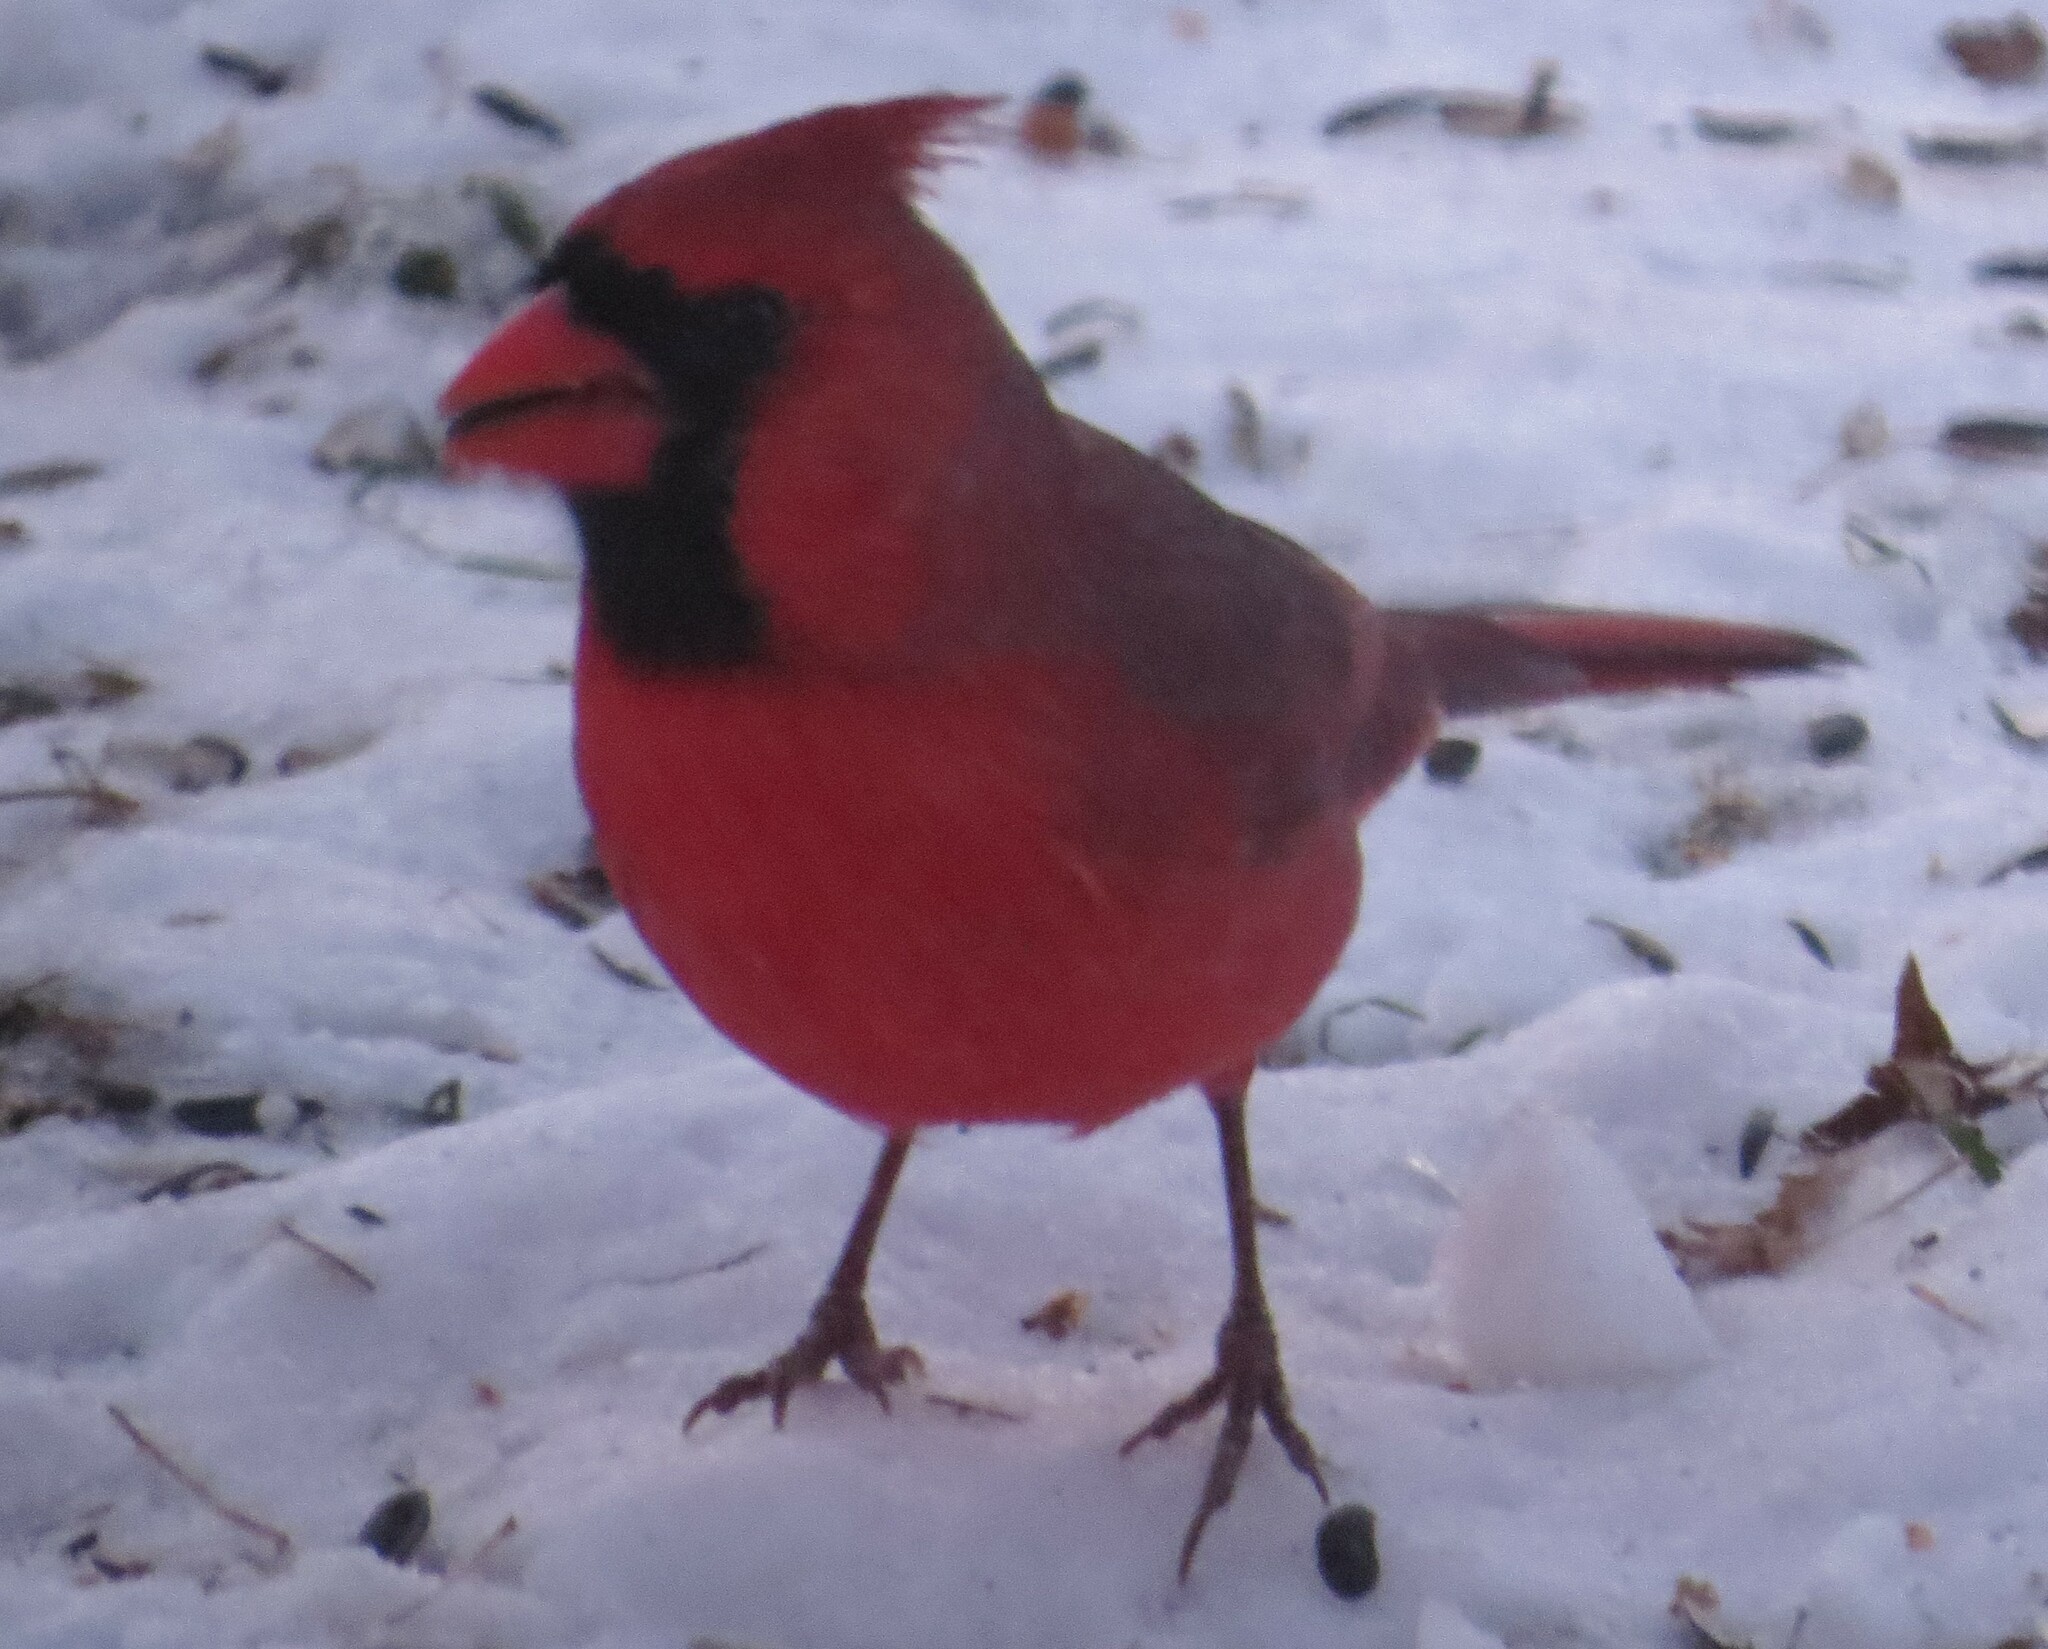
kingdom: Animalia
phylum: Chordata
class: Aves
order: Passeriformes
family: Cardinalidae
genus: Cardinalis
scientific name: Cardinalis cardinalis
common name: Northern cardinal
